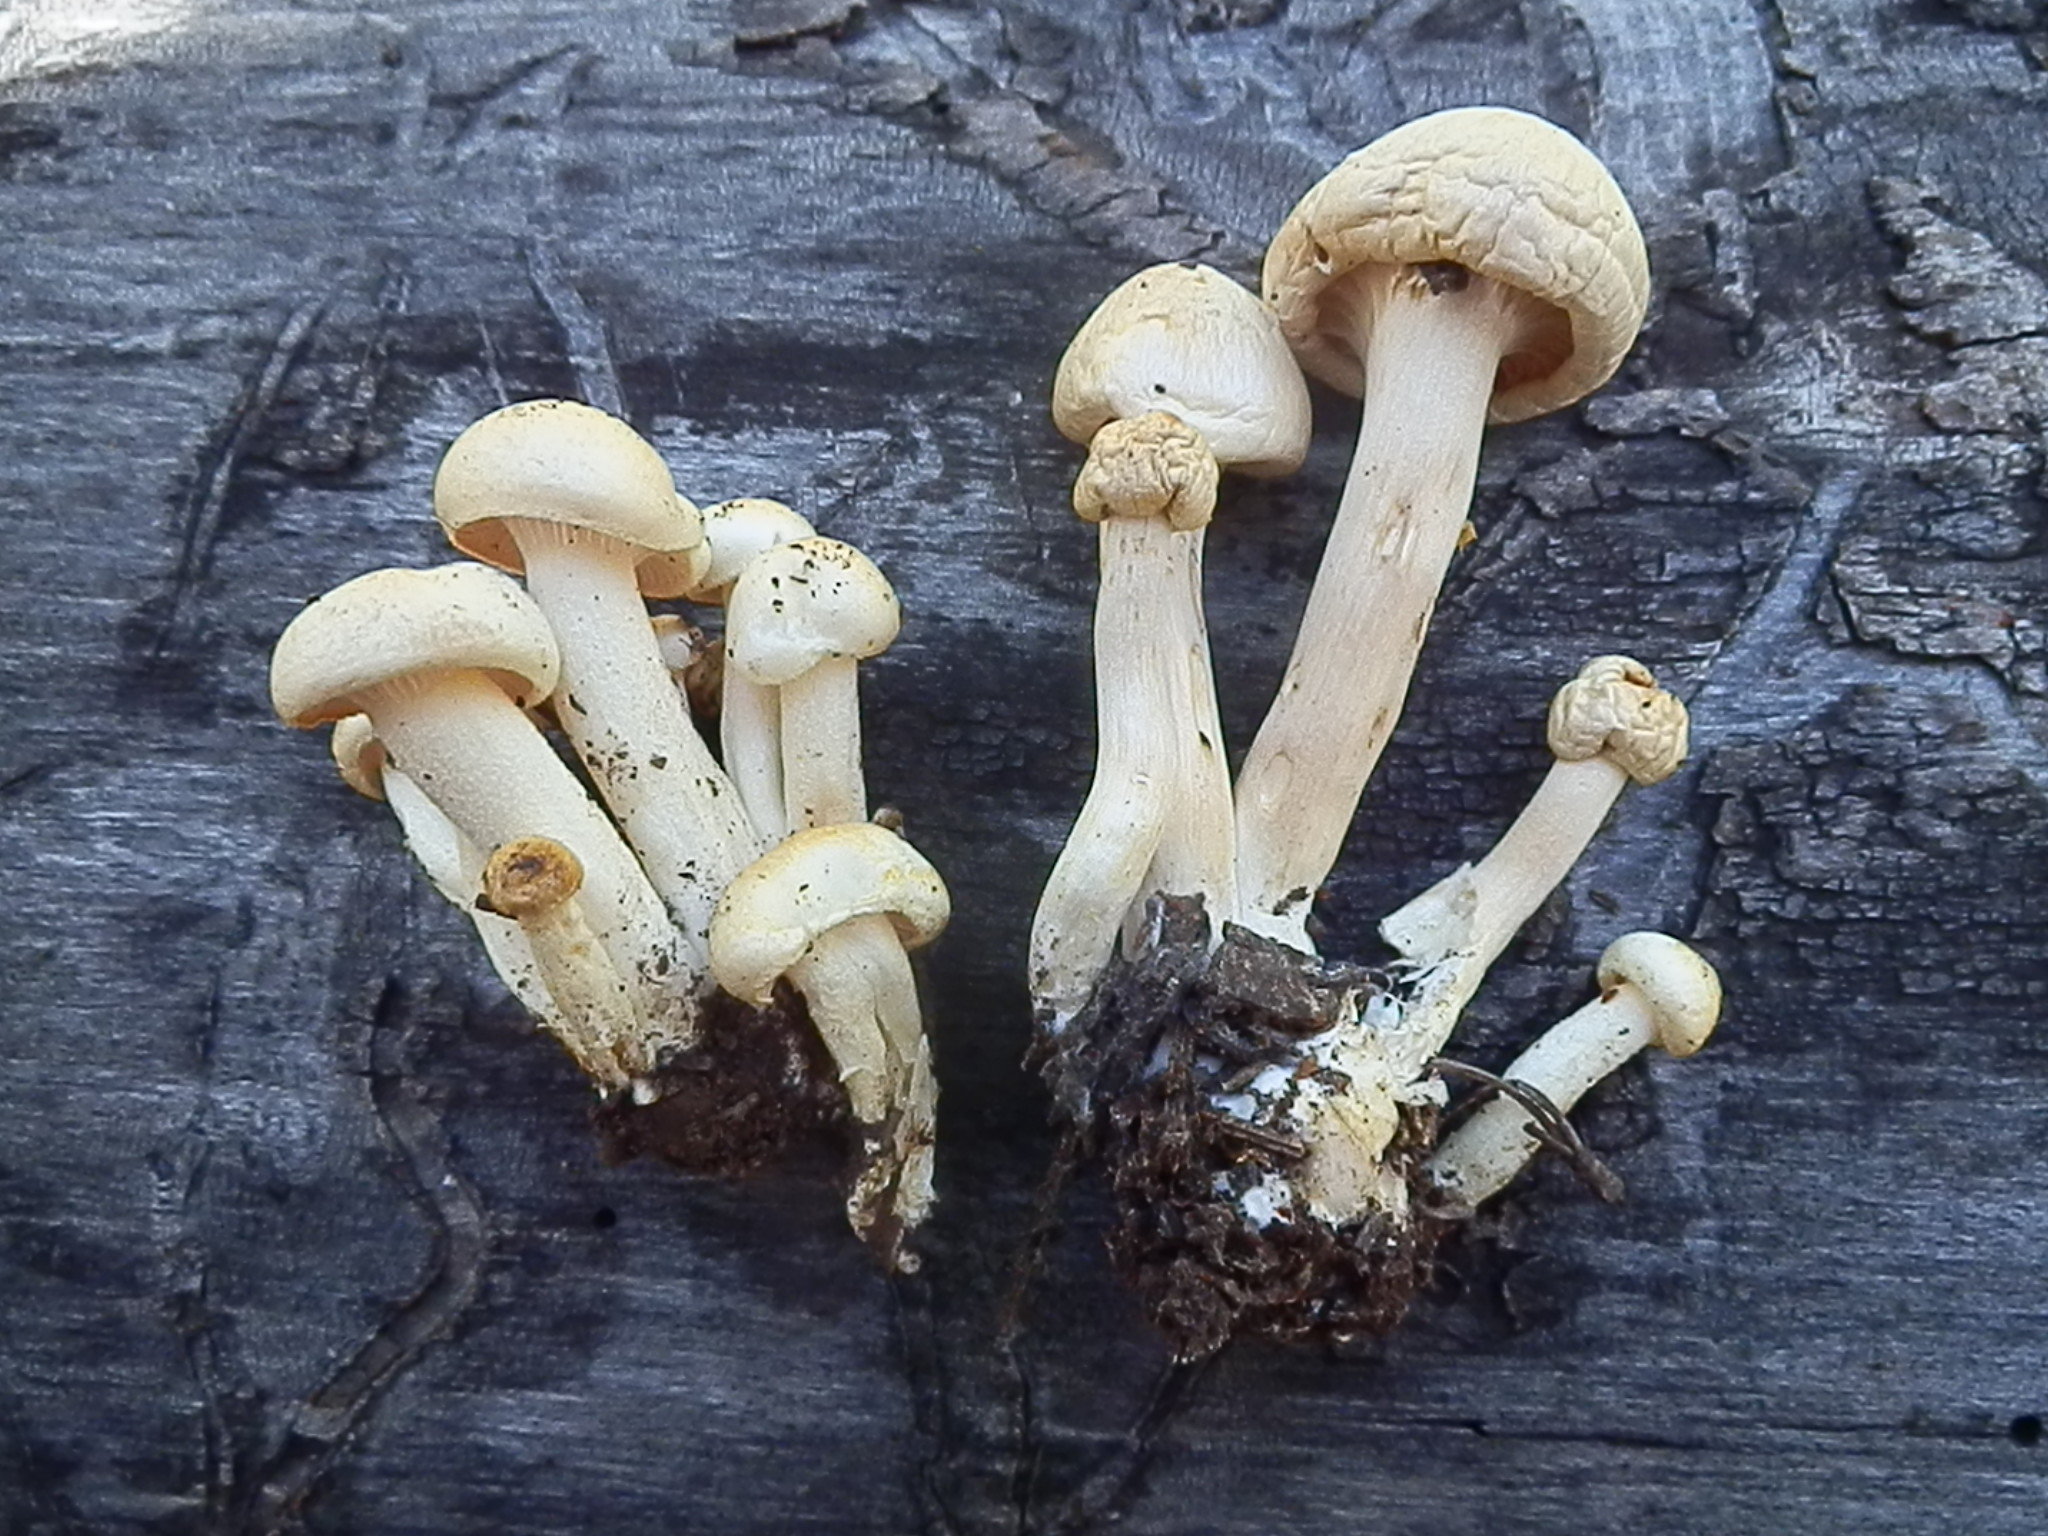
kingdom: Fungi
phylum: Basidiomycota
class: Agaricomycetes
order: Agaricales
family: Hygrophoraceae
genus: Hygrophorus
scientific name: Hygrophorus chrysodon
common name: Gold flecked woodwax
